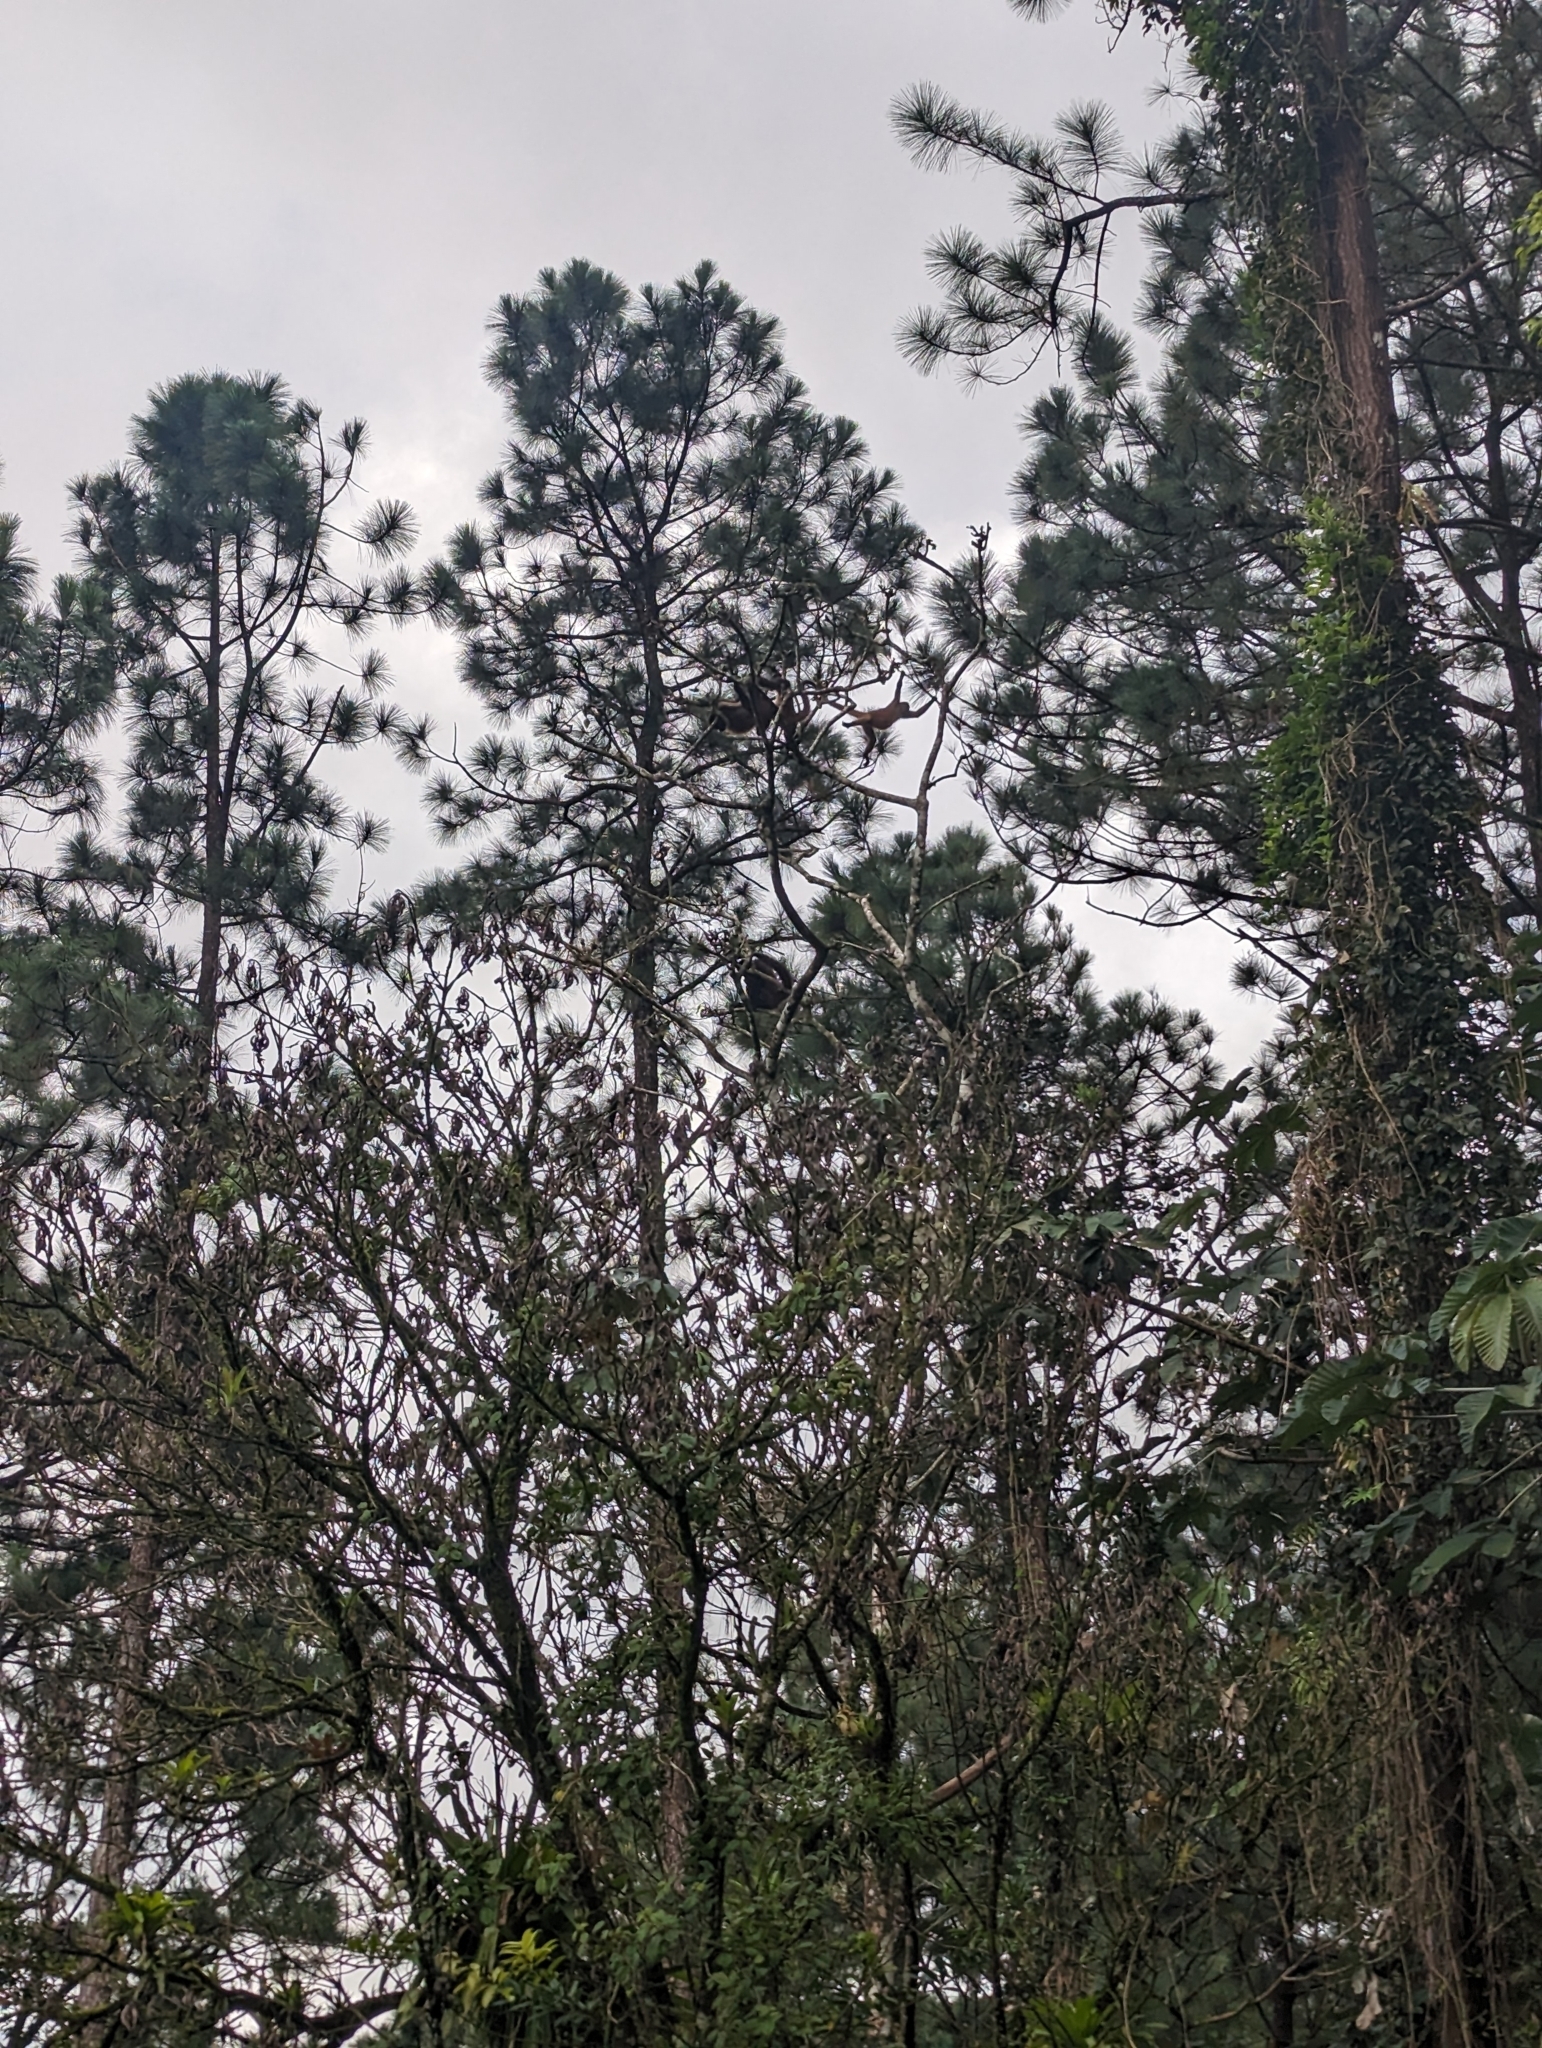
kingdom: Animalia
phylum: Chordata
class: Mammalia
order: Primates
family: Atelidae
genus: Ateles
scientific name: Ateles geoffroyi
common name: Black-handed spider monkey
